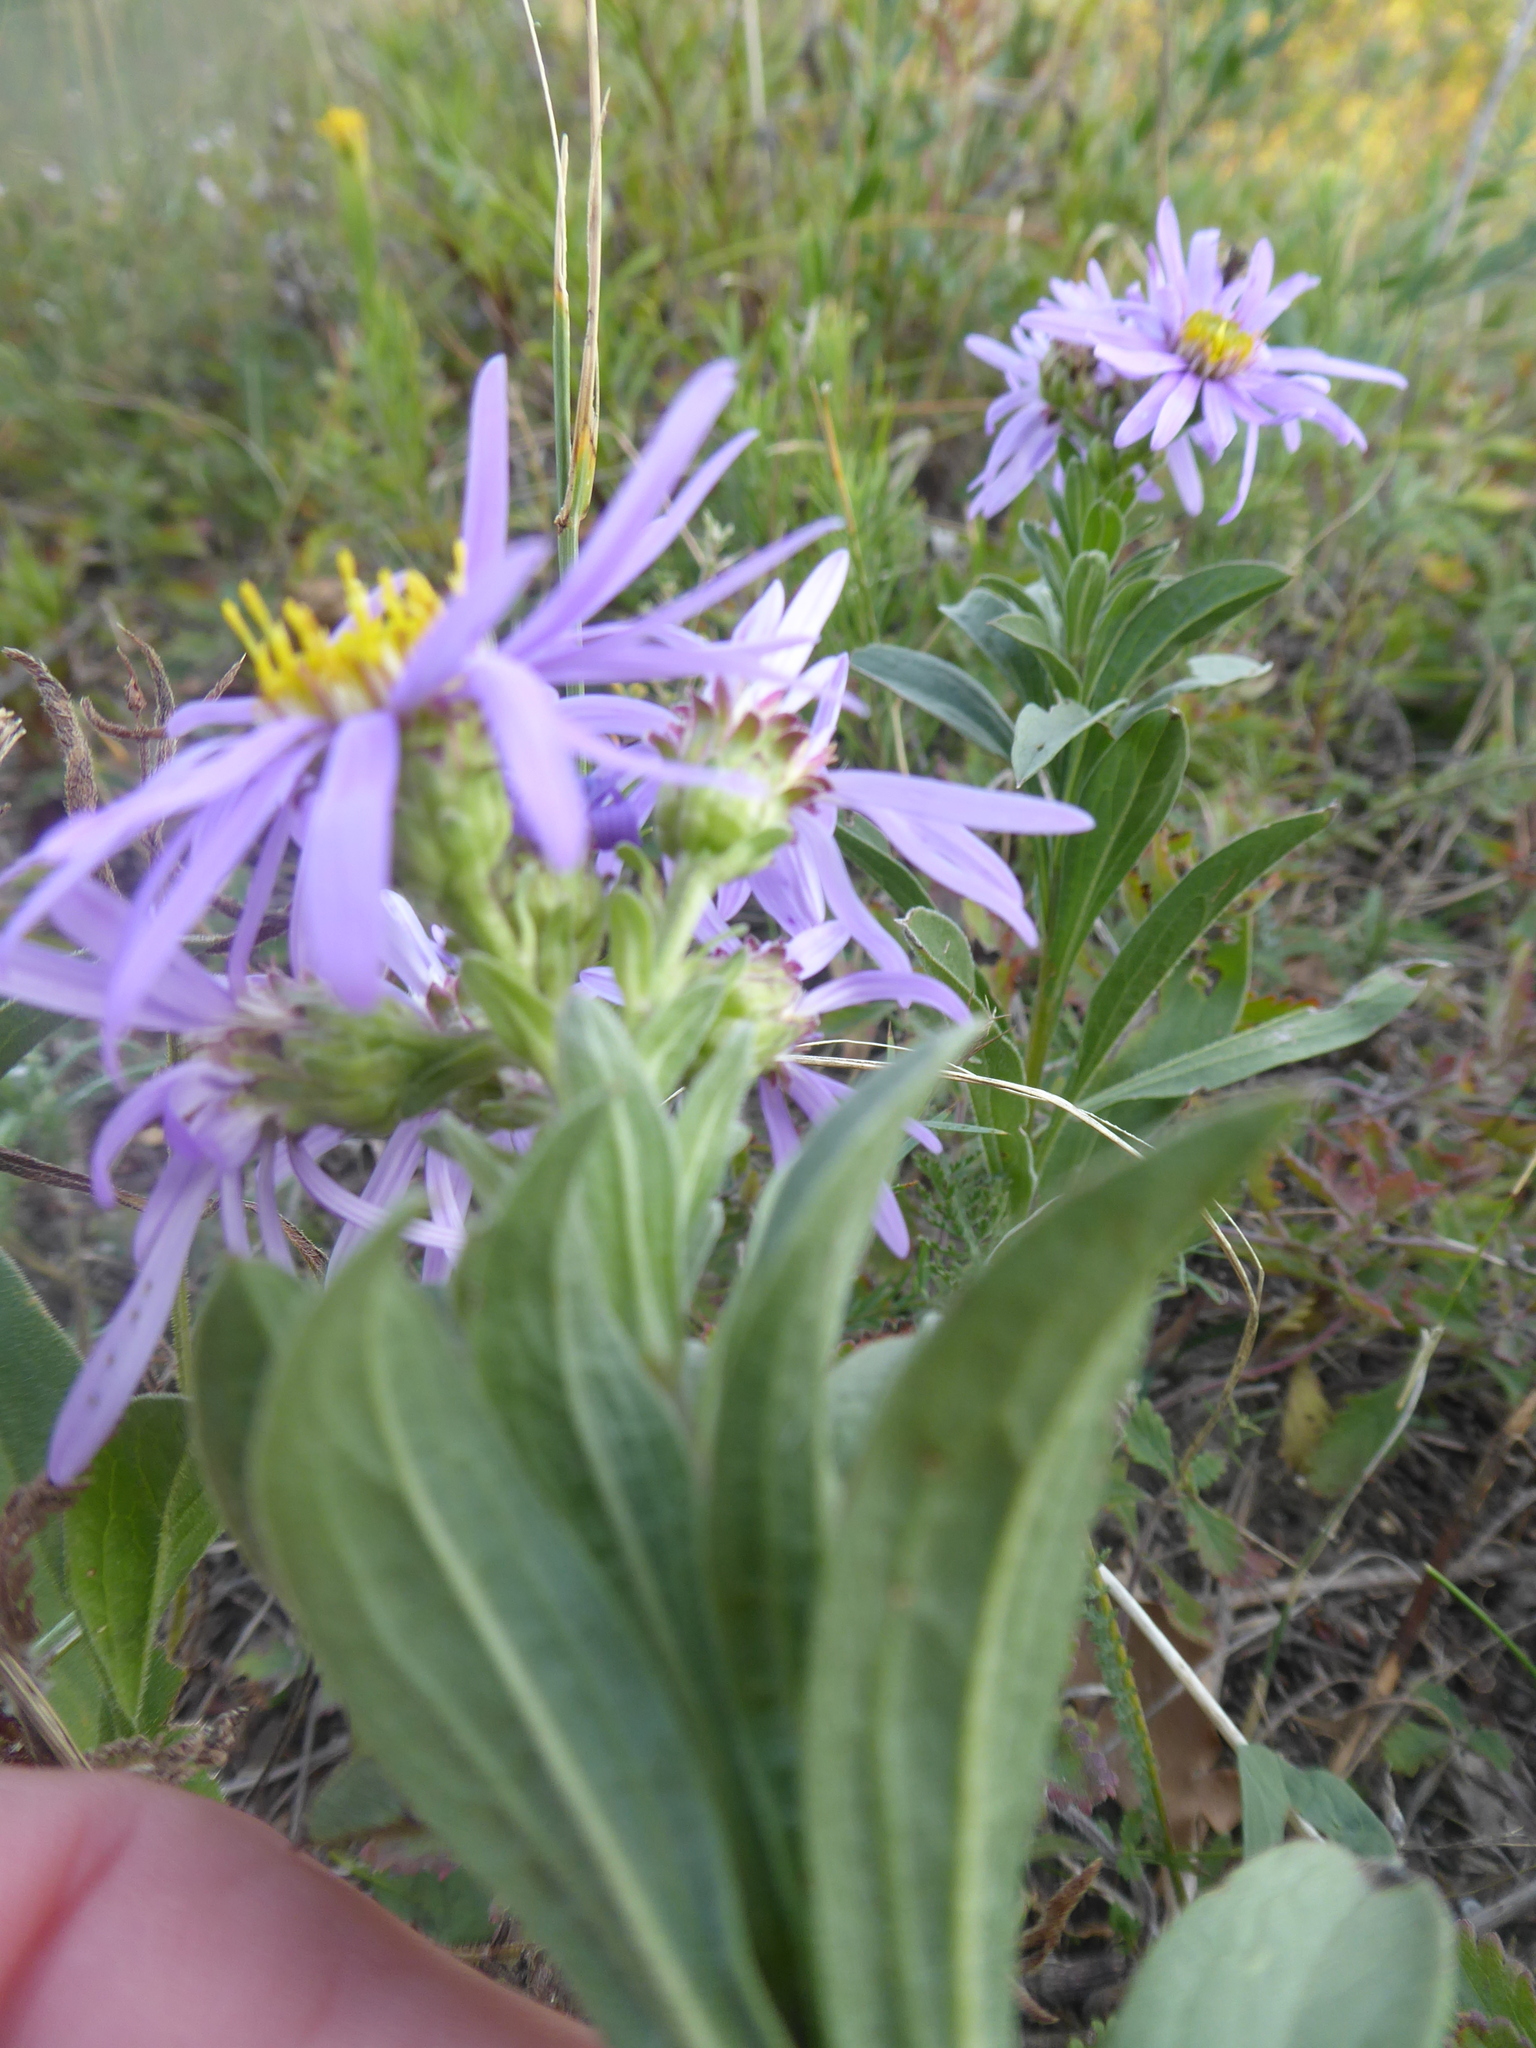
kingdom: Plantae
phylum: Tracheophyta
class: Magnoliopsida
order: Asterales
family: Asteraceae
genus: Aster
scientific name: Aster amellus
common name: European michaelmas daisy
